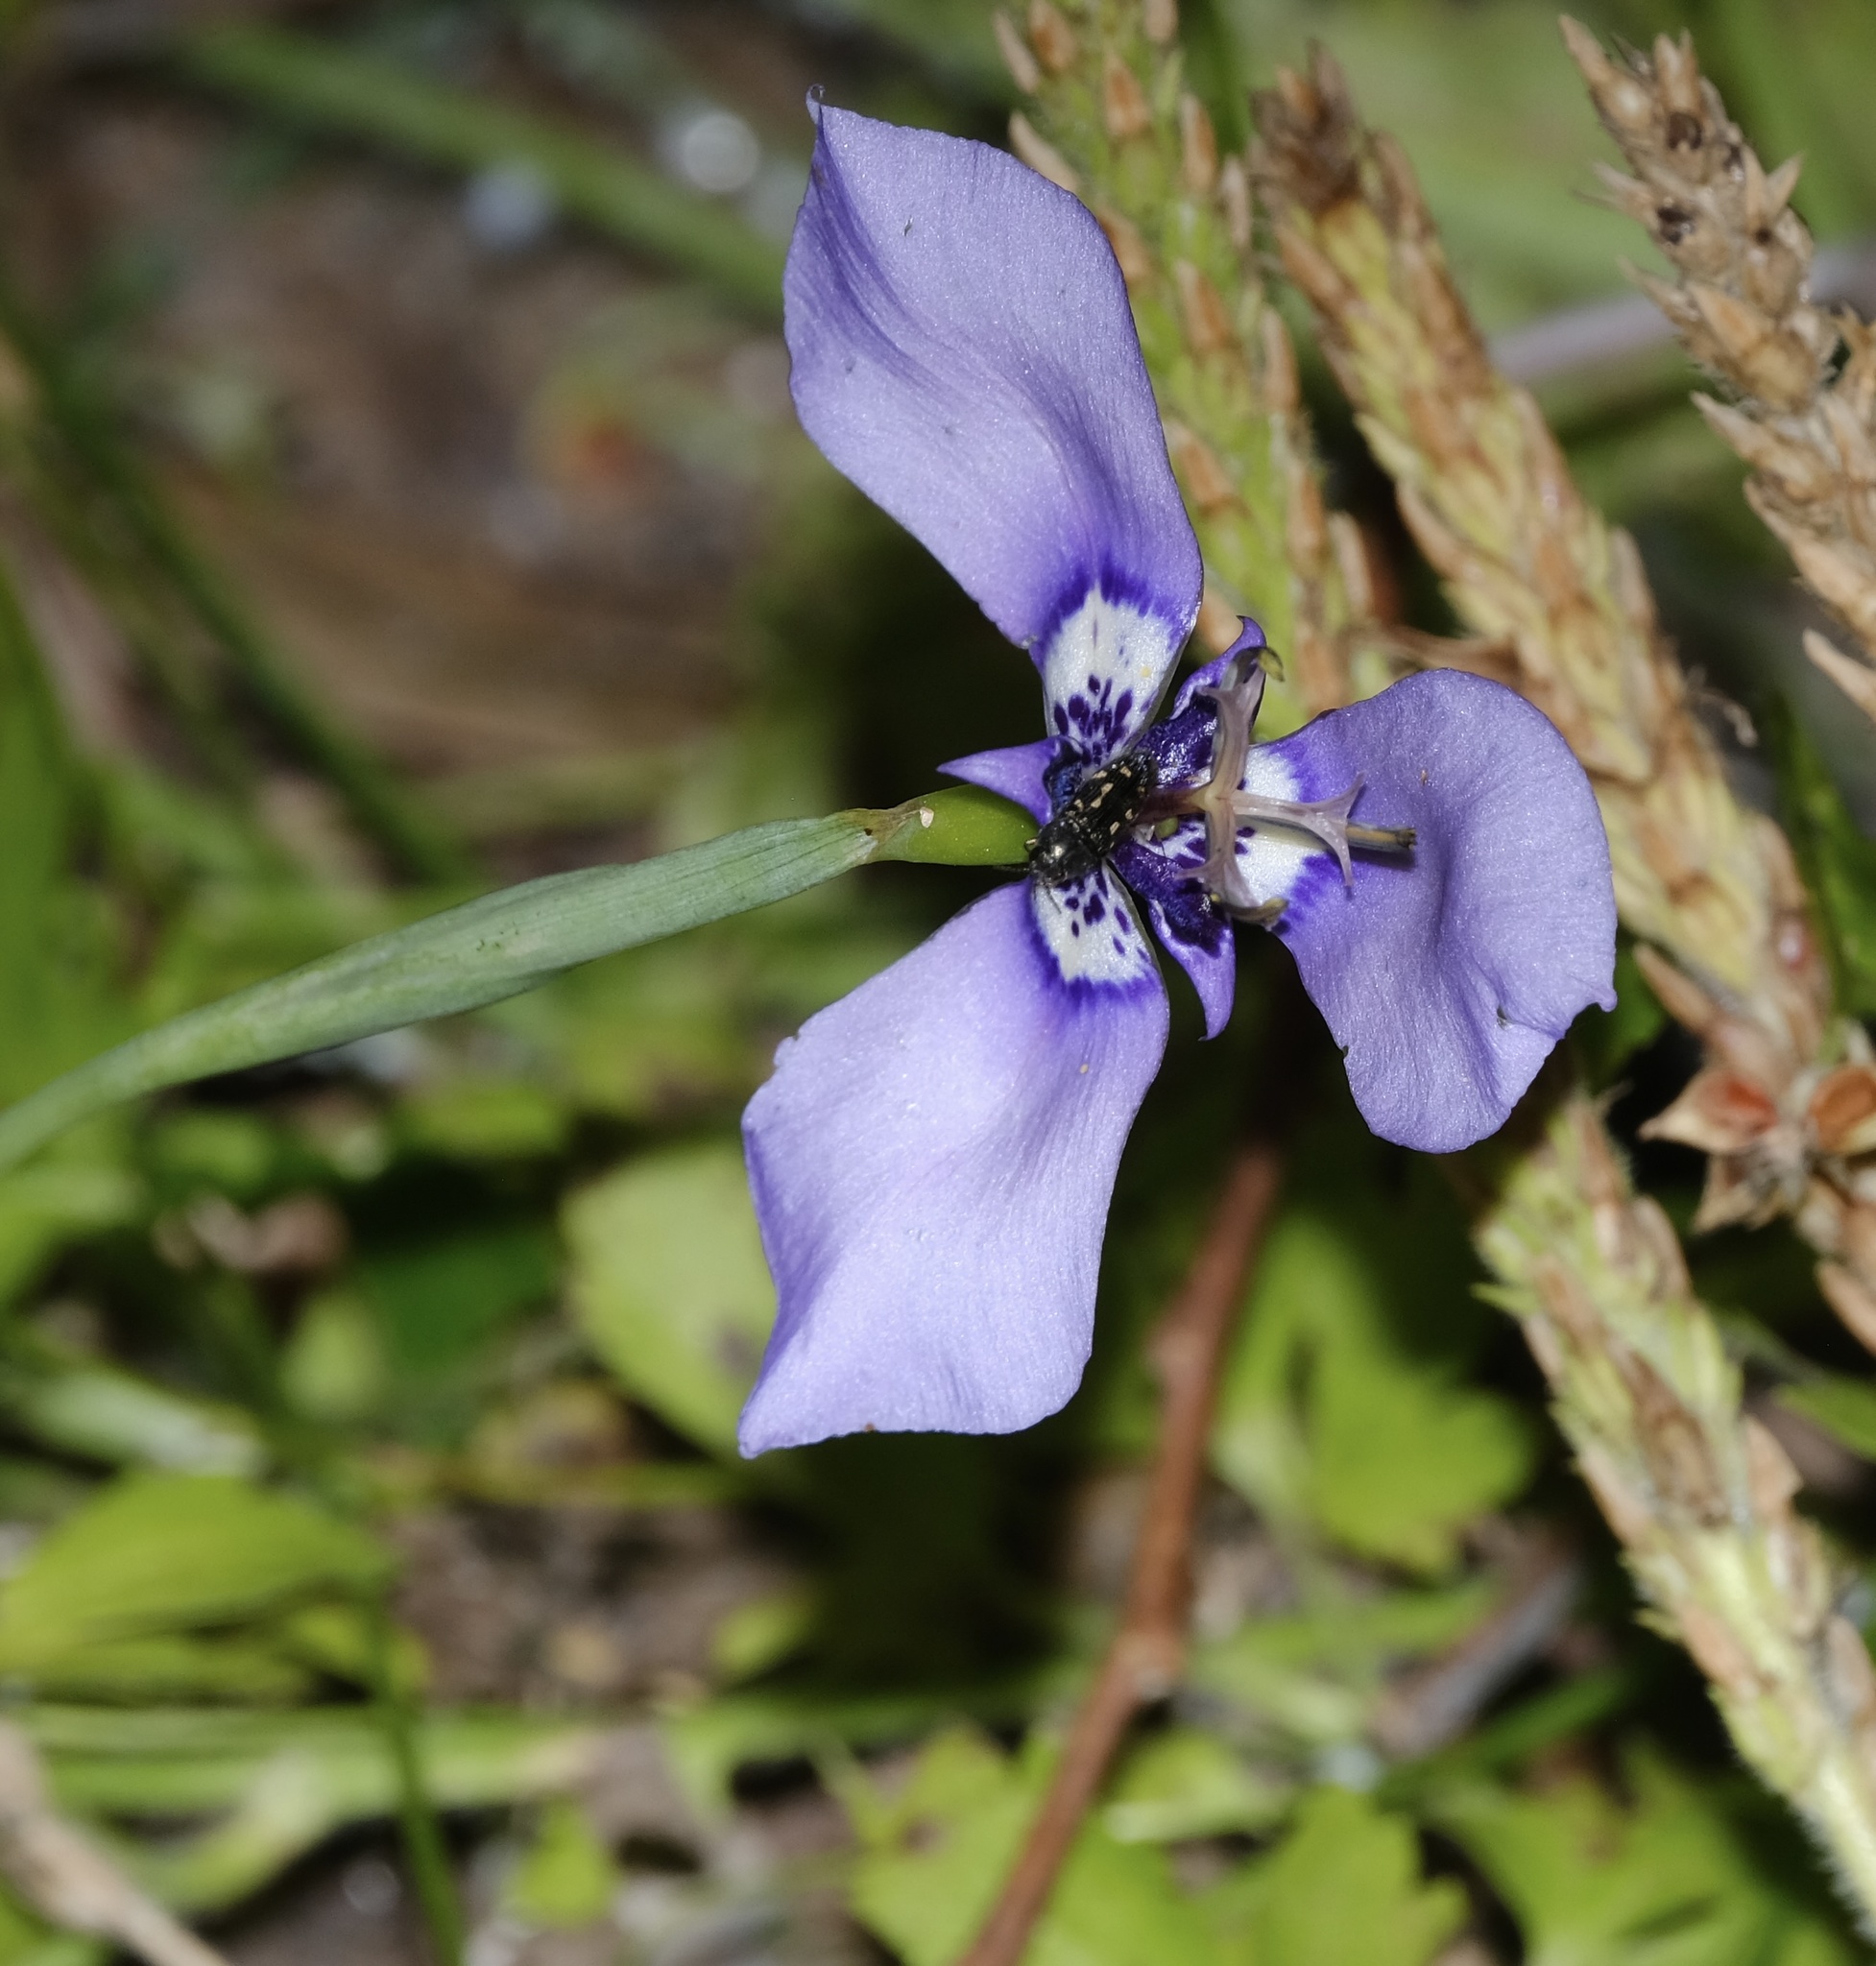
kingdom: Plantae
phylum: Tracheophyta
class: Liliopsida
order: Asparagales
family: Iridaceae
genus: Herbertia
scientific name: Herbertia lahue
